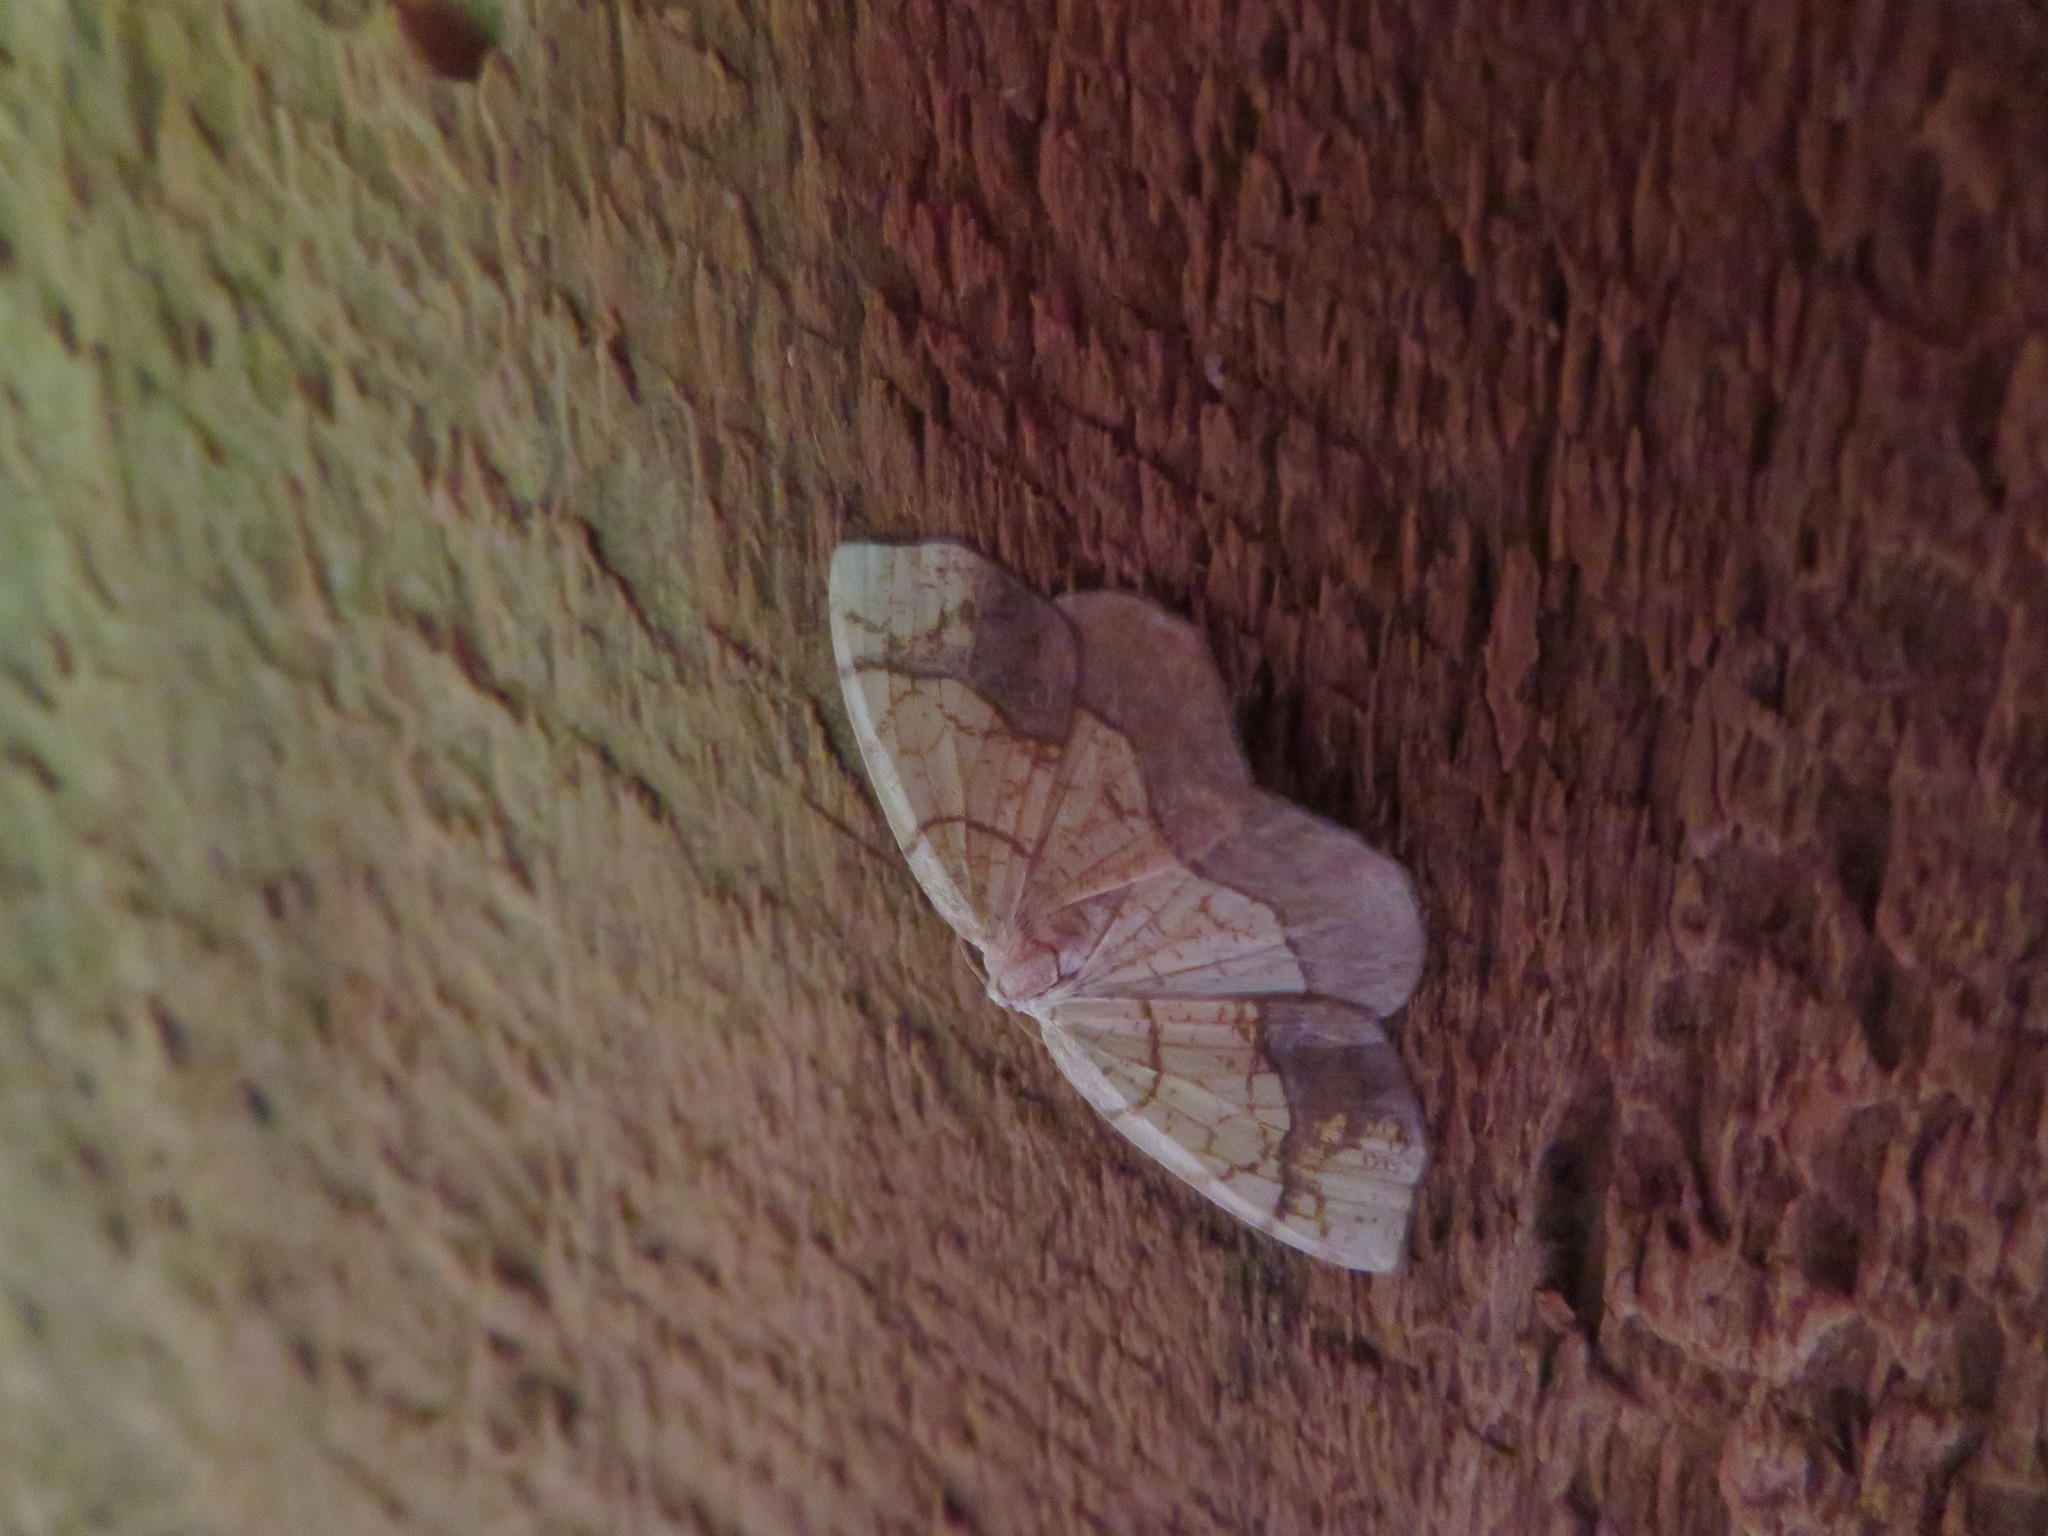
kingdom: Animalia
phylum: Arthropoda
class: Insecta
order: Lepidoptera
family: Geometridae
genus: Nematocampa
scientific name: Nematocampa resistaria
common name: Horned spanworm moth
